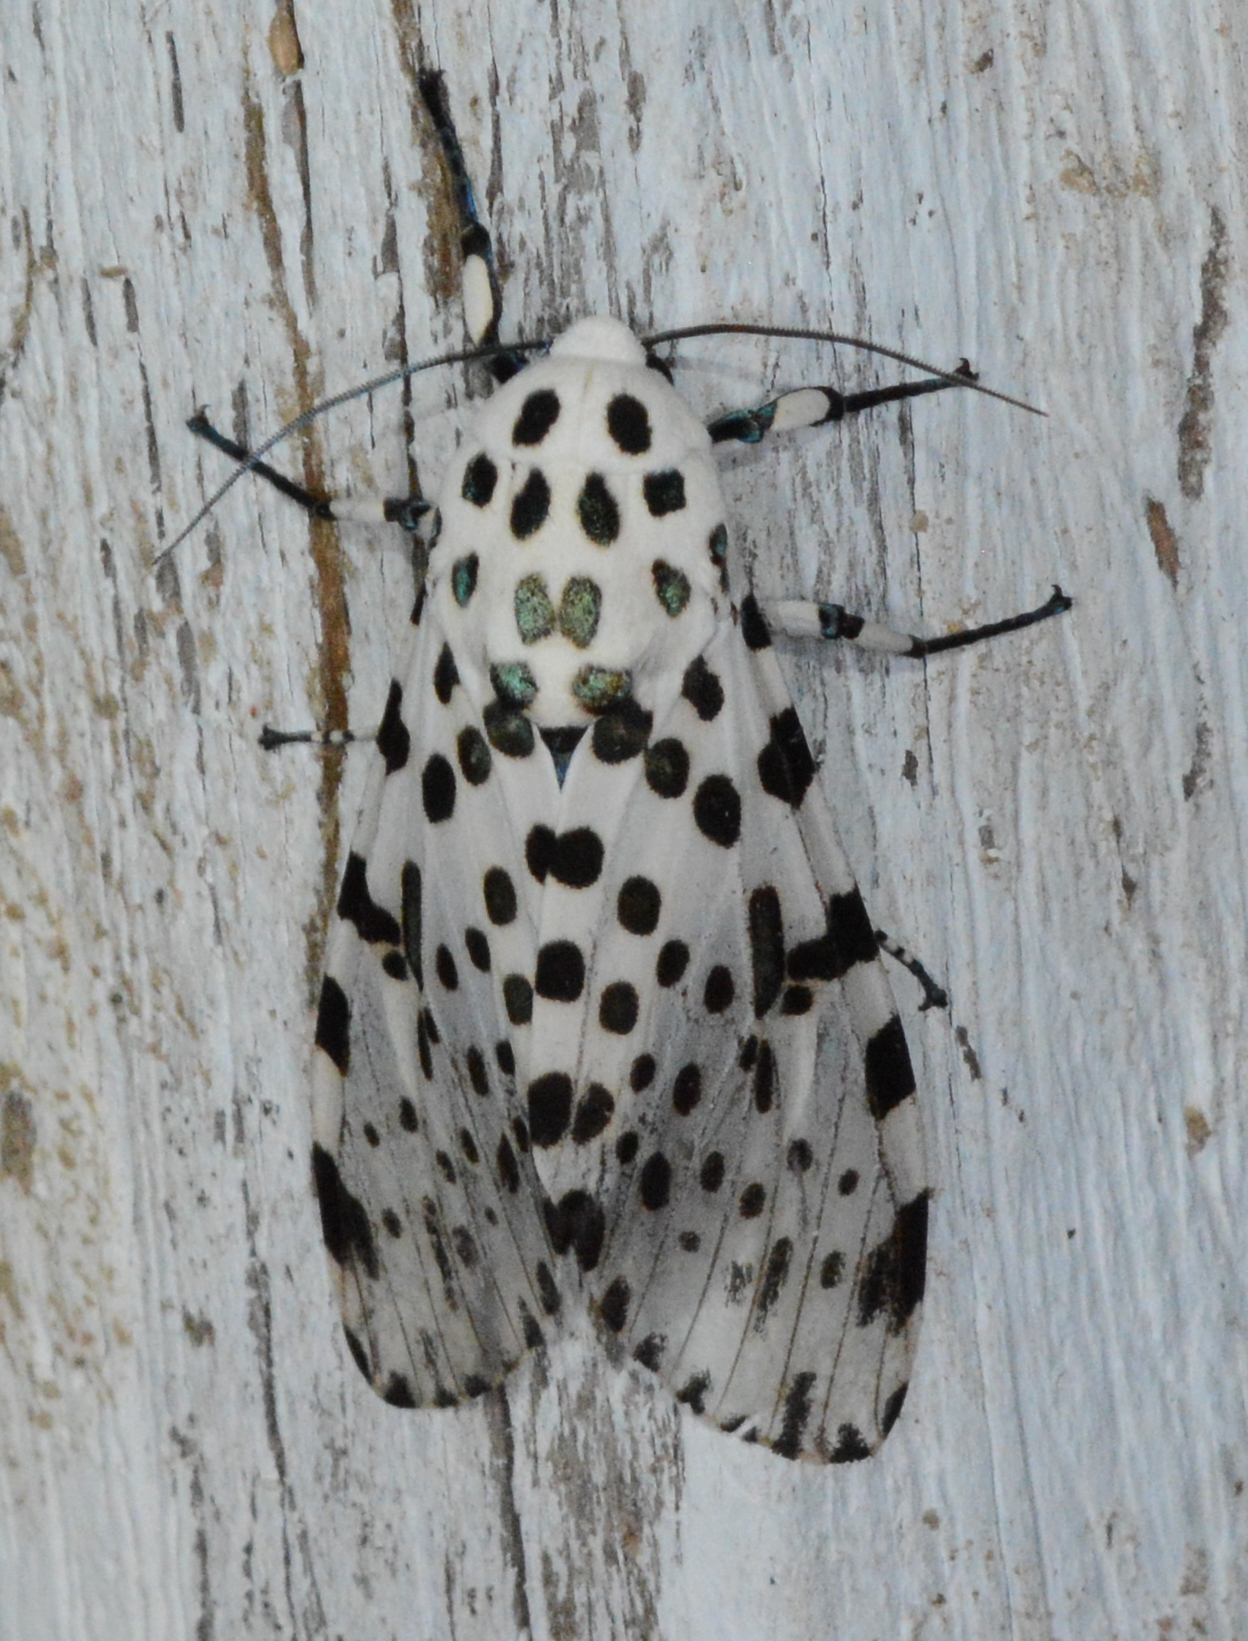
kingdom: Animalia
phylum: Arthropoda
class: Insecta
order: Lepidoptera
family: Erebidae
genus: Hypercompe
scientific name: Hypercompe scribonia
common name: Giant leopard moth
